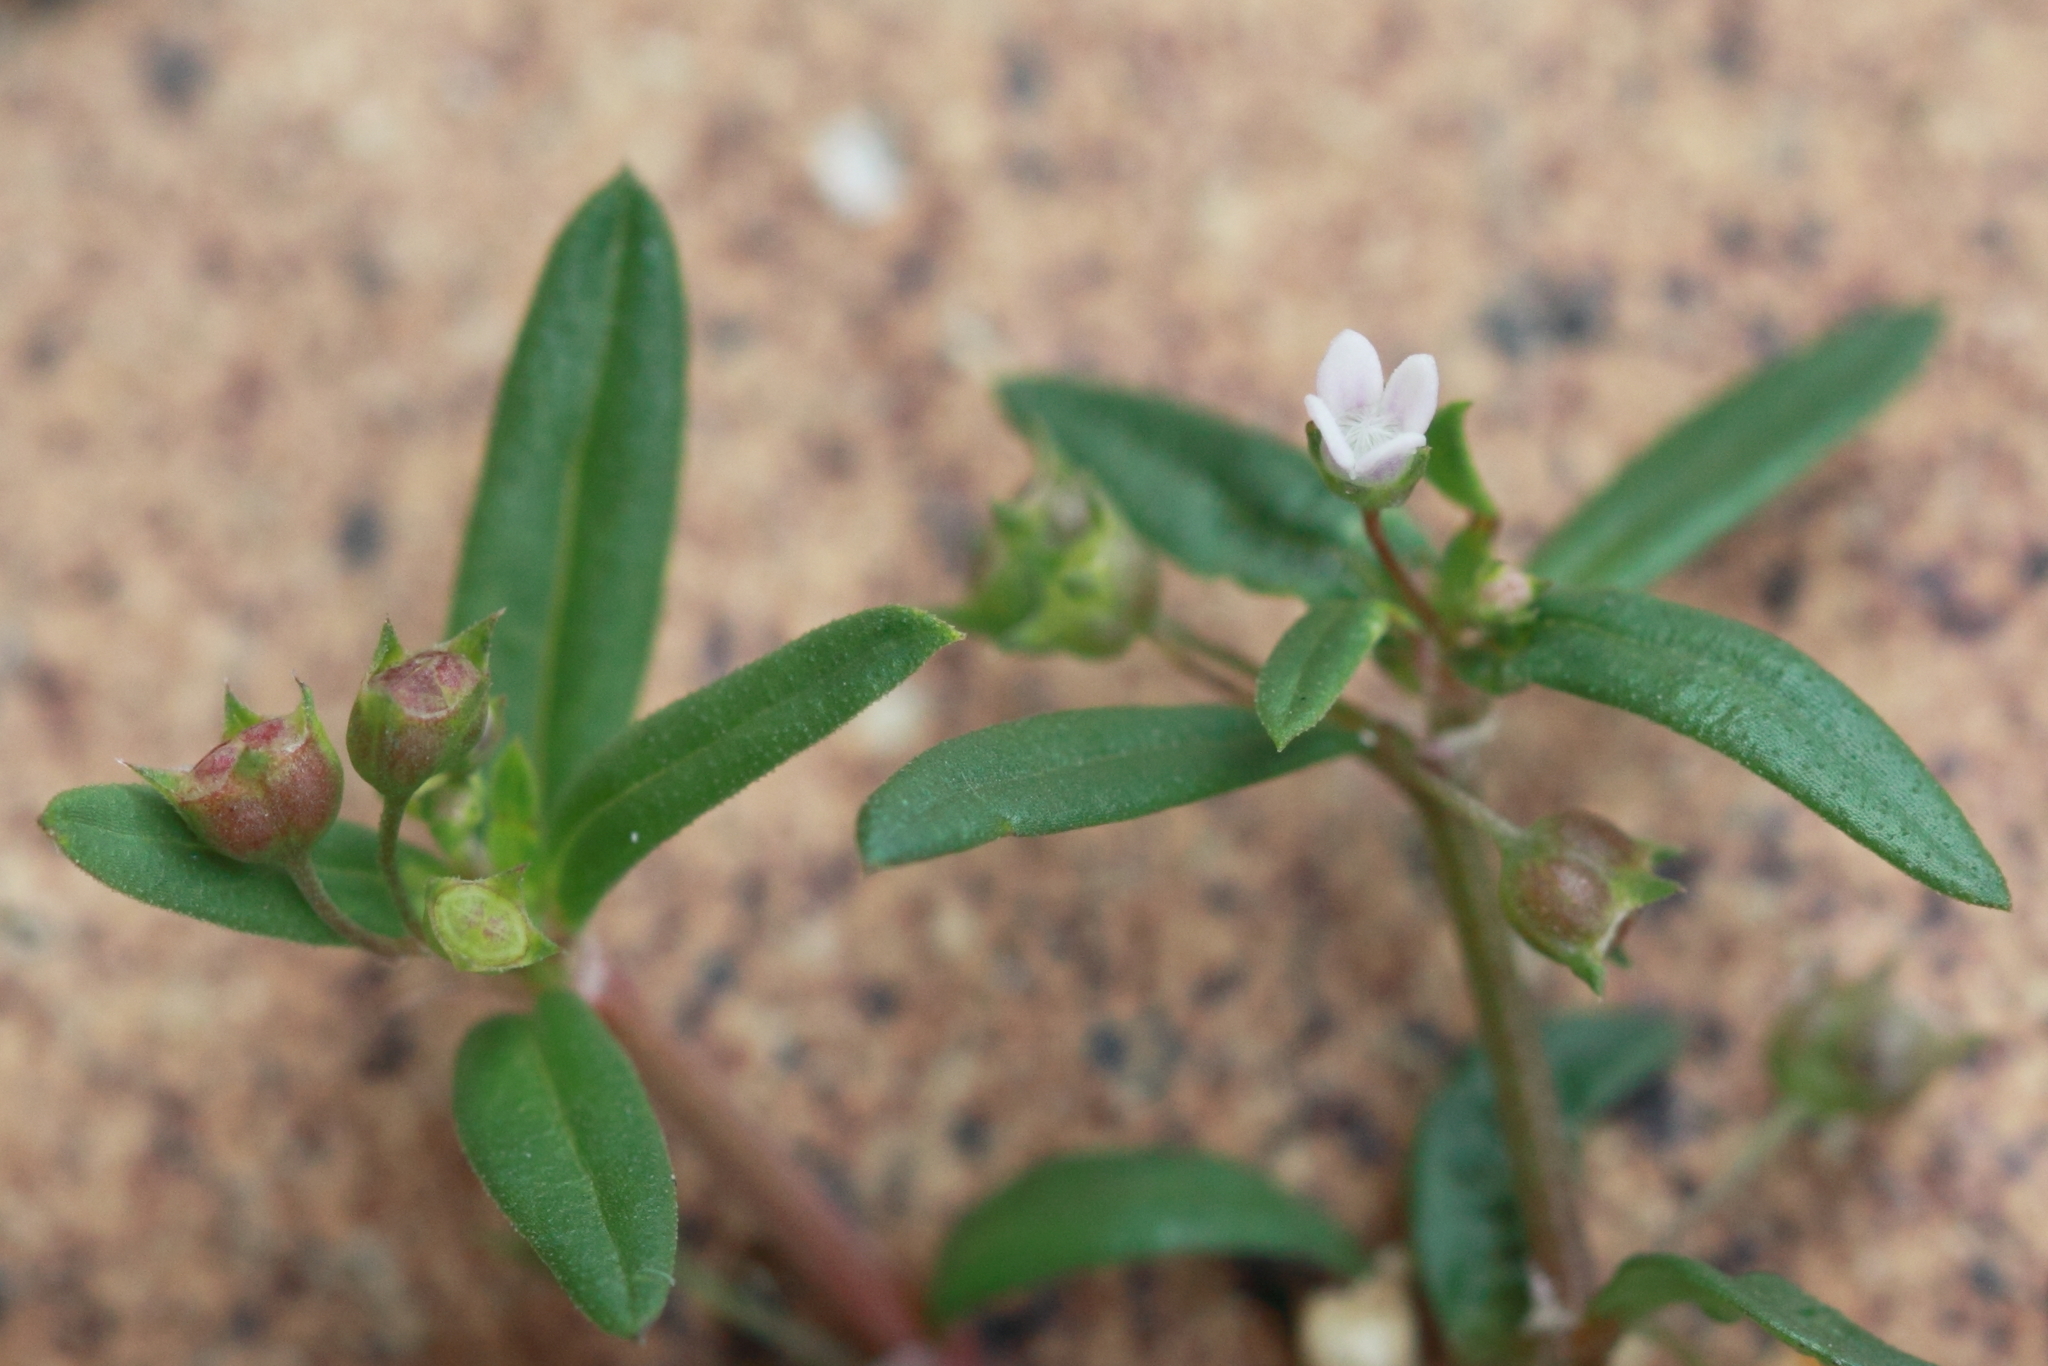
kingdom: Plantae
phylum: Tracheophyta
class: Magnoliopsida
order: Gentianales
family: Rubiaceae
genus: Oldenlandia
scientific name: Oldenlandia corymbosa
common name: Flat-top mille graines
